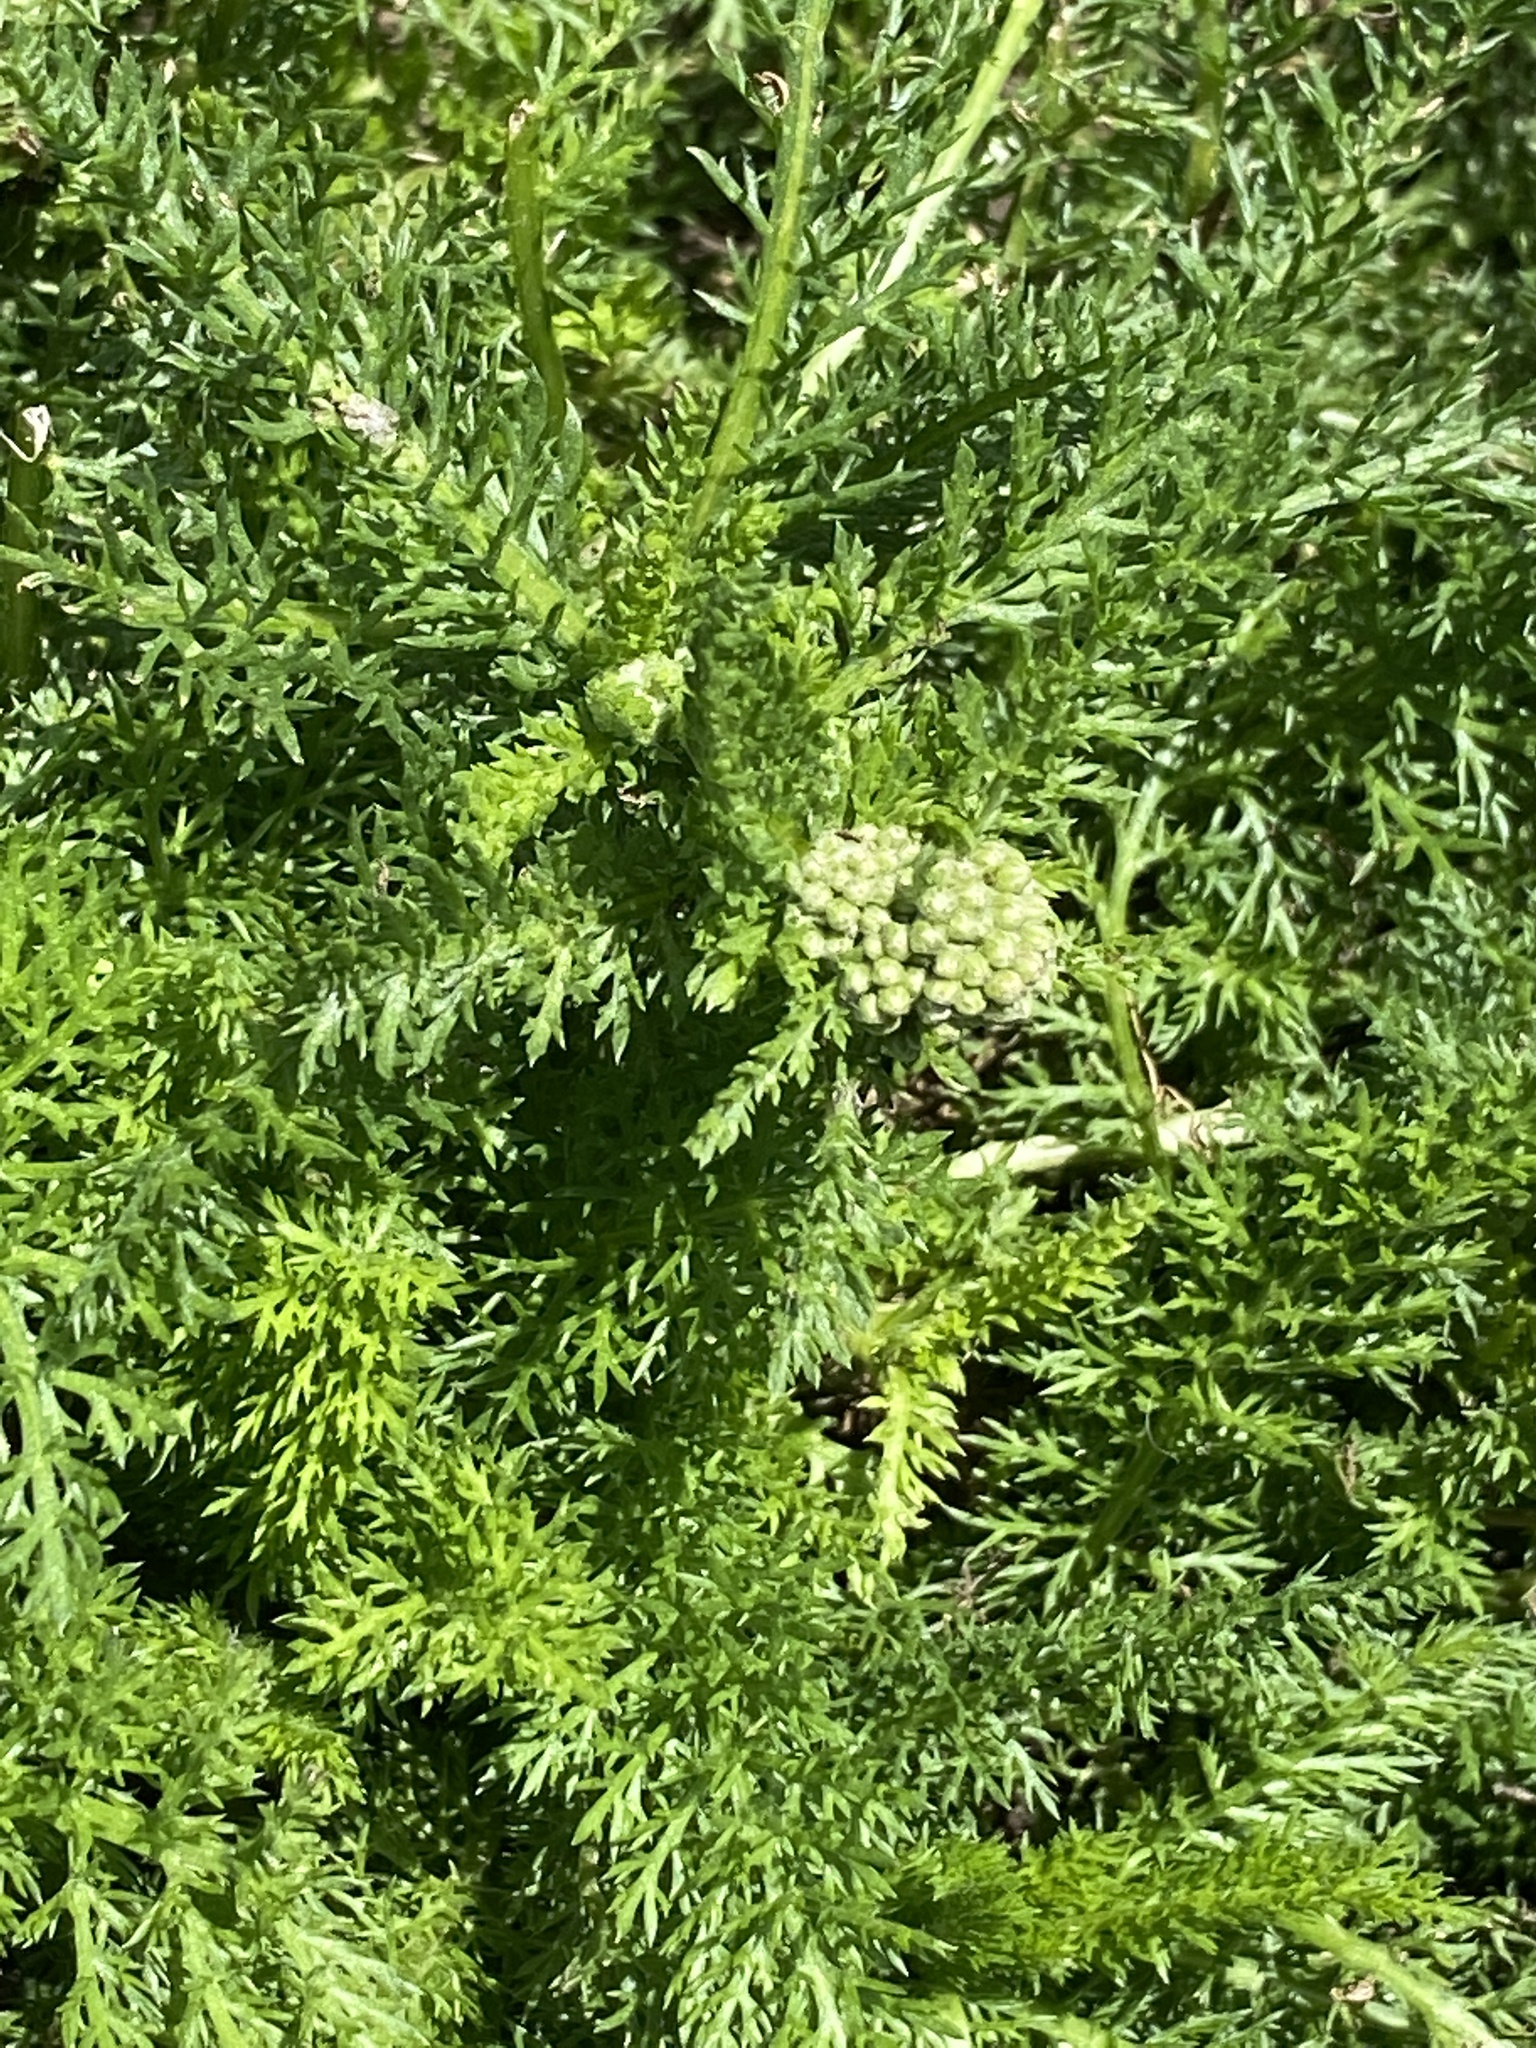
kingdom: Plantae
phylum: Tracheophyta
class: Magnoliopsida
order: Asterales
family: Asteraceae
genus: Achillea
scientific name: Achillea millefolium
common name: Yarrow
